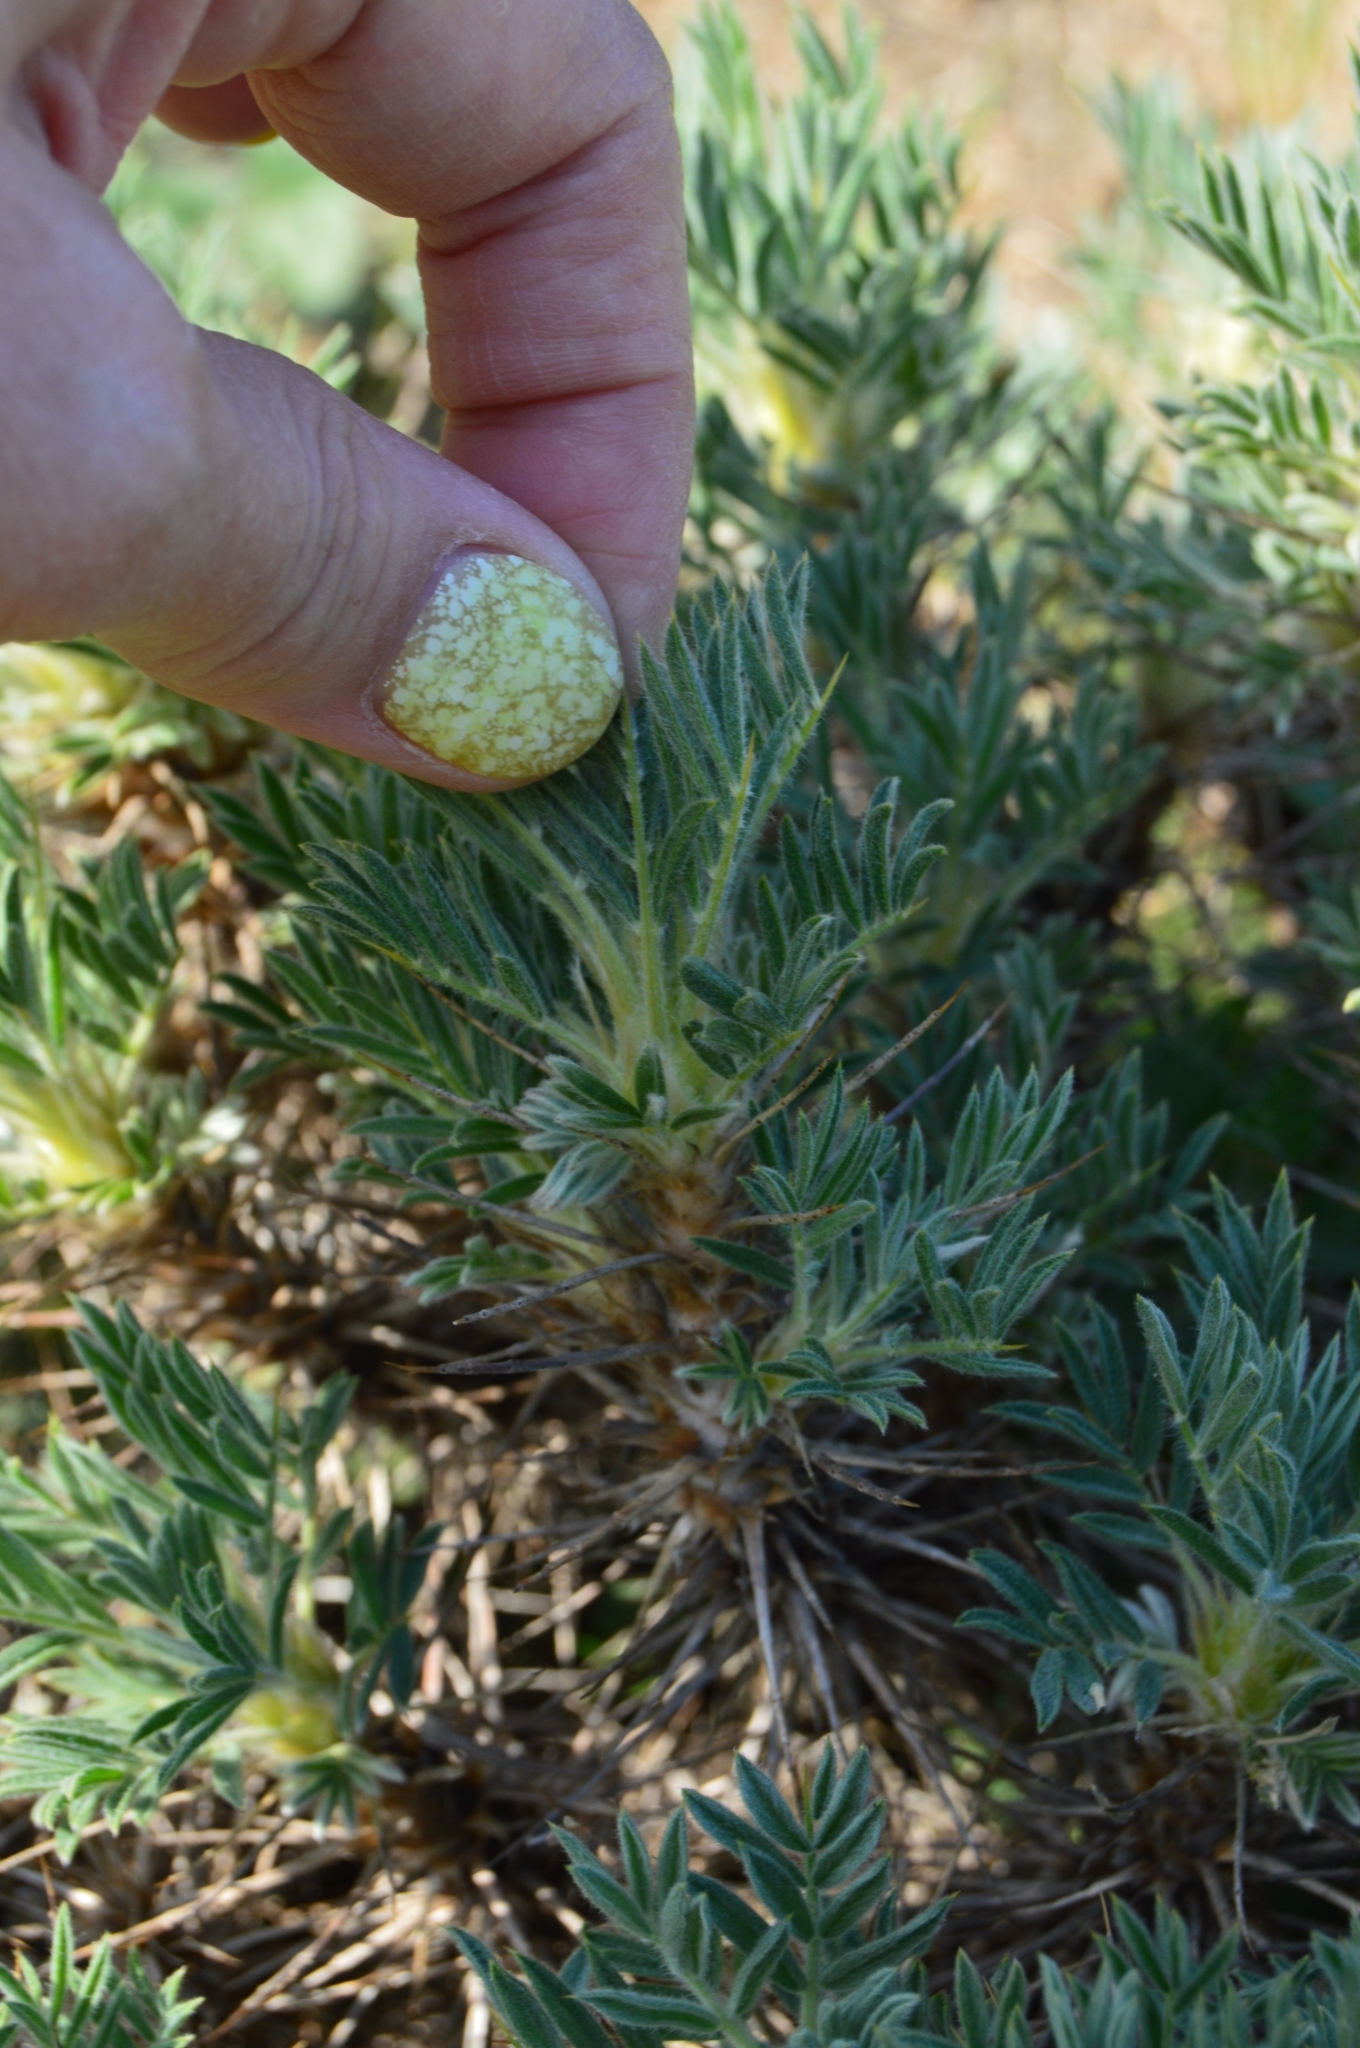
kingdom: Plantae
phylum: Tracheophyta
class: Magnoliopsida
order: Fabales
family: Fabaceae
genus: Astragalus
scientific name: Astragalus arnacantha
